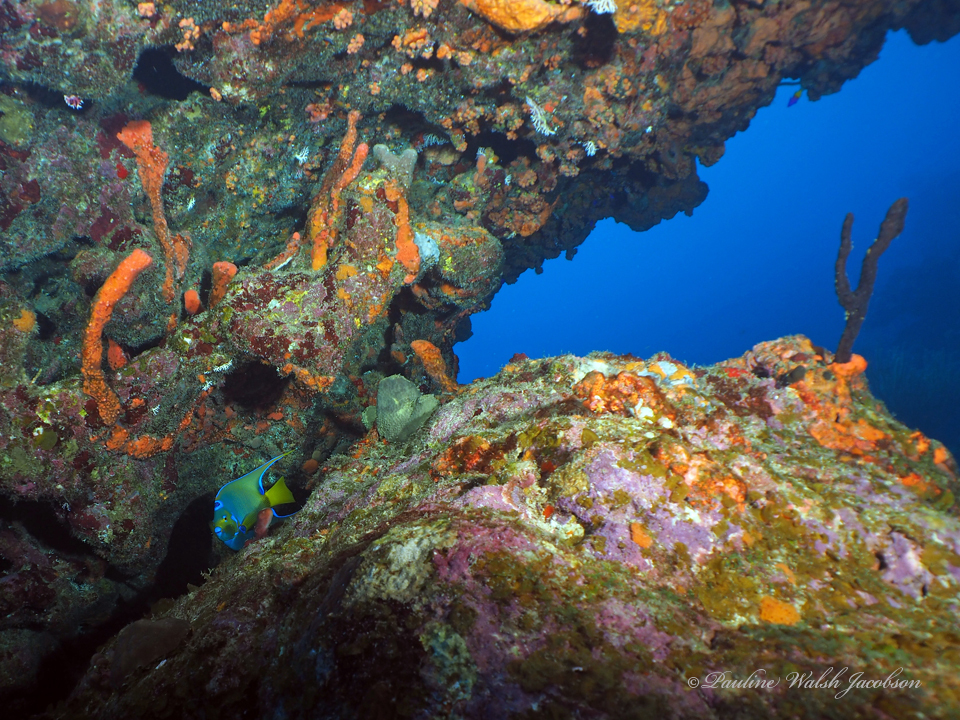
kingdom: Animalia
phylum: Chordata
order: Perciformes
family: Pomacanthidae
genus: Holacanthus
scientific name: Holacanthus ciliaris
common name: Queen angelfish
